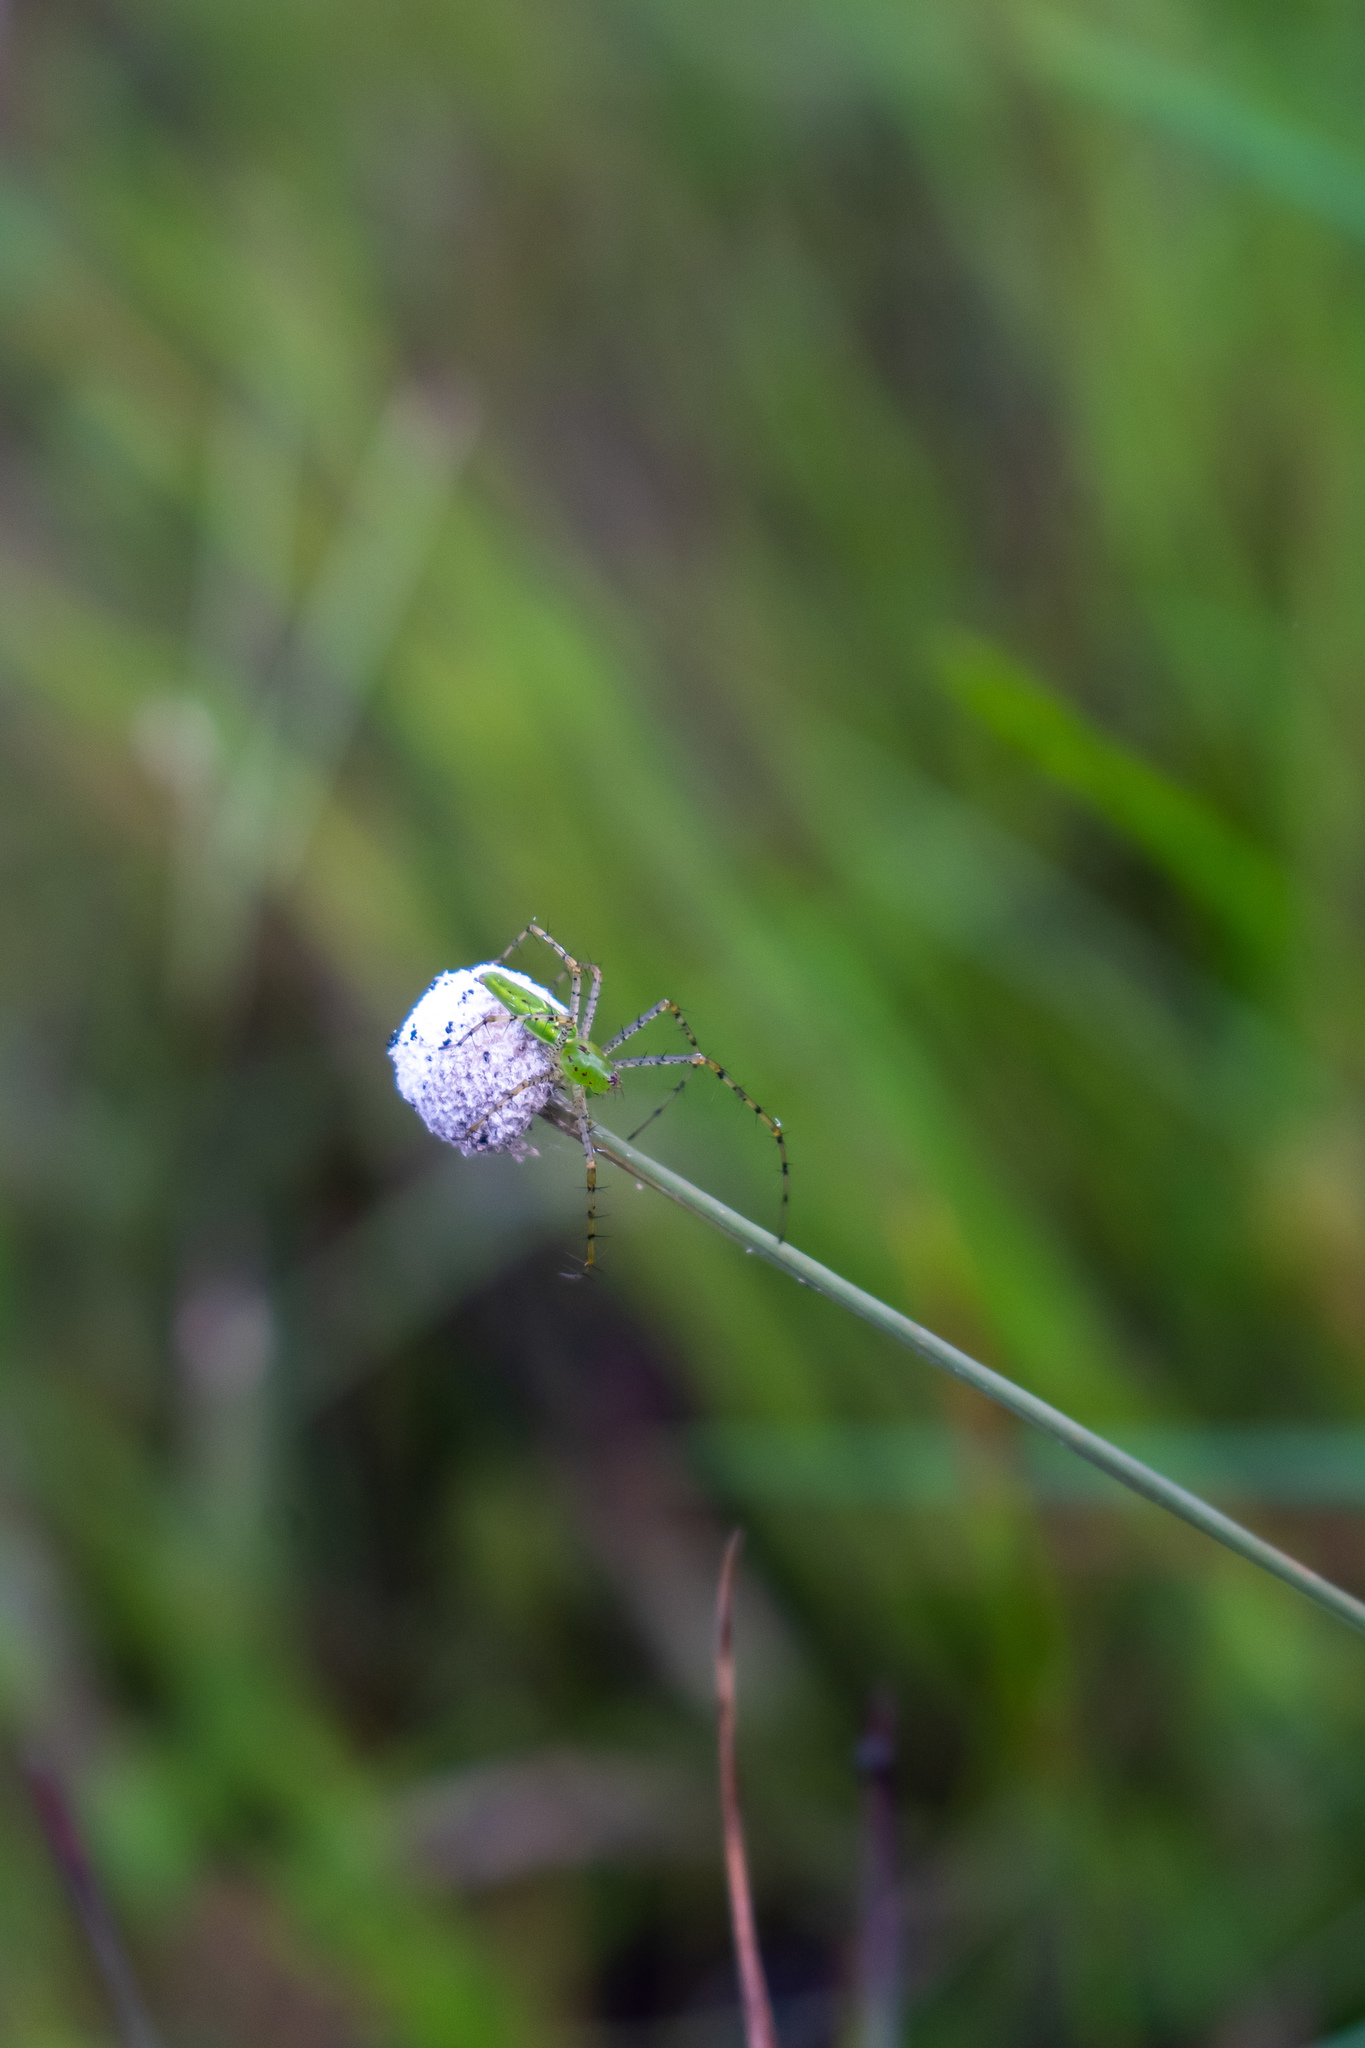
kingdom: Animalia
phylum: Arthropoda
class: Arachnida
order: Araneae
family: Oxyopidae
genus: Peucetia
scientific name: Peucetia viridans
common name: Lynx spiders
